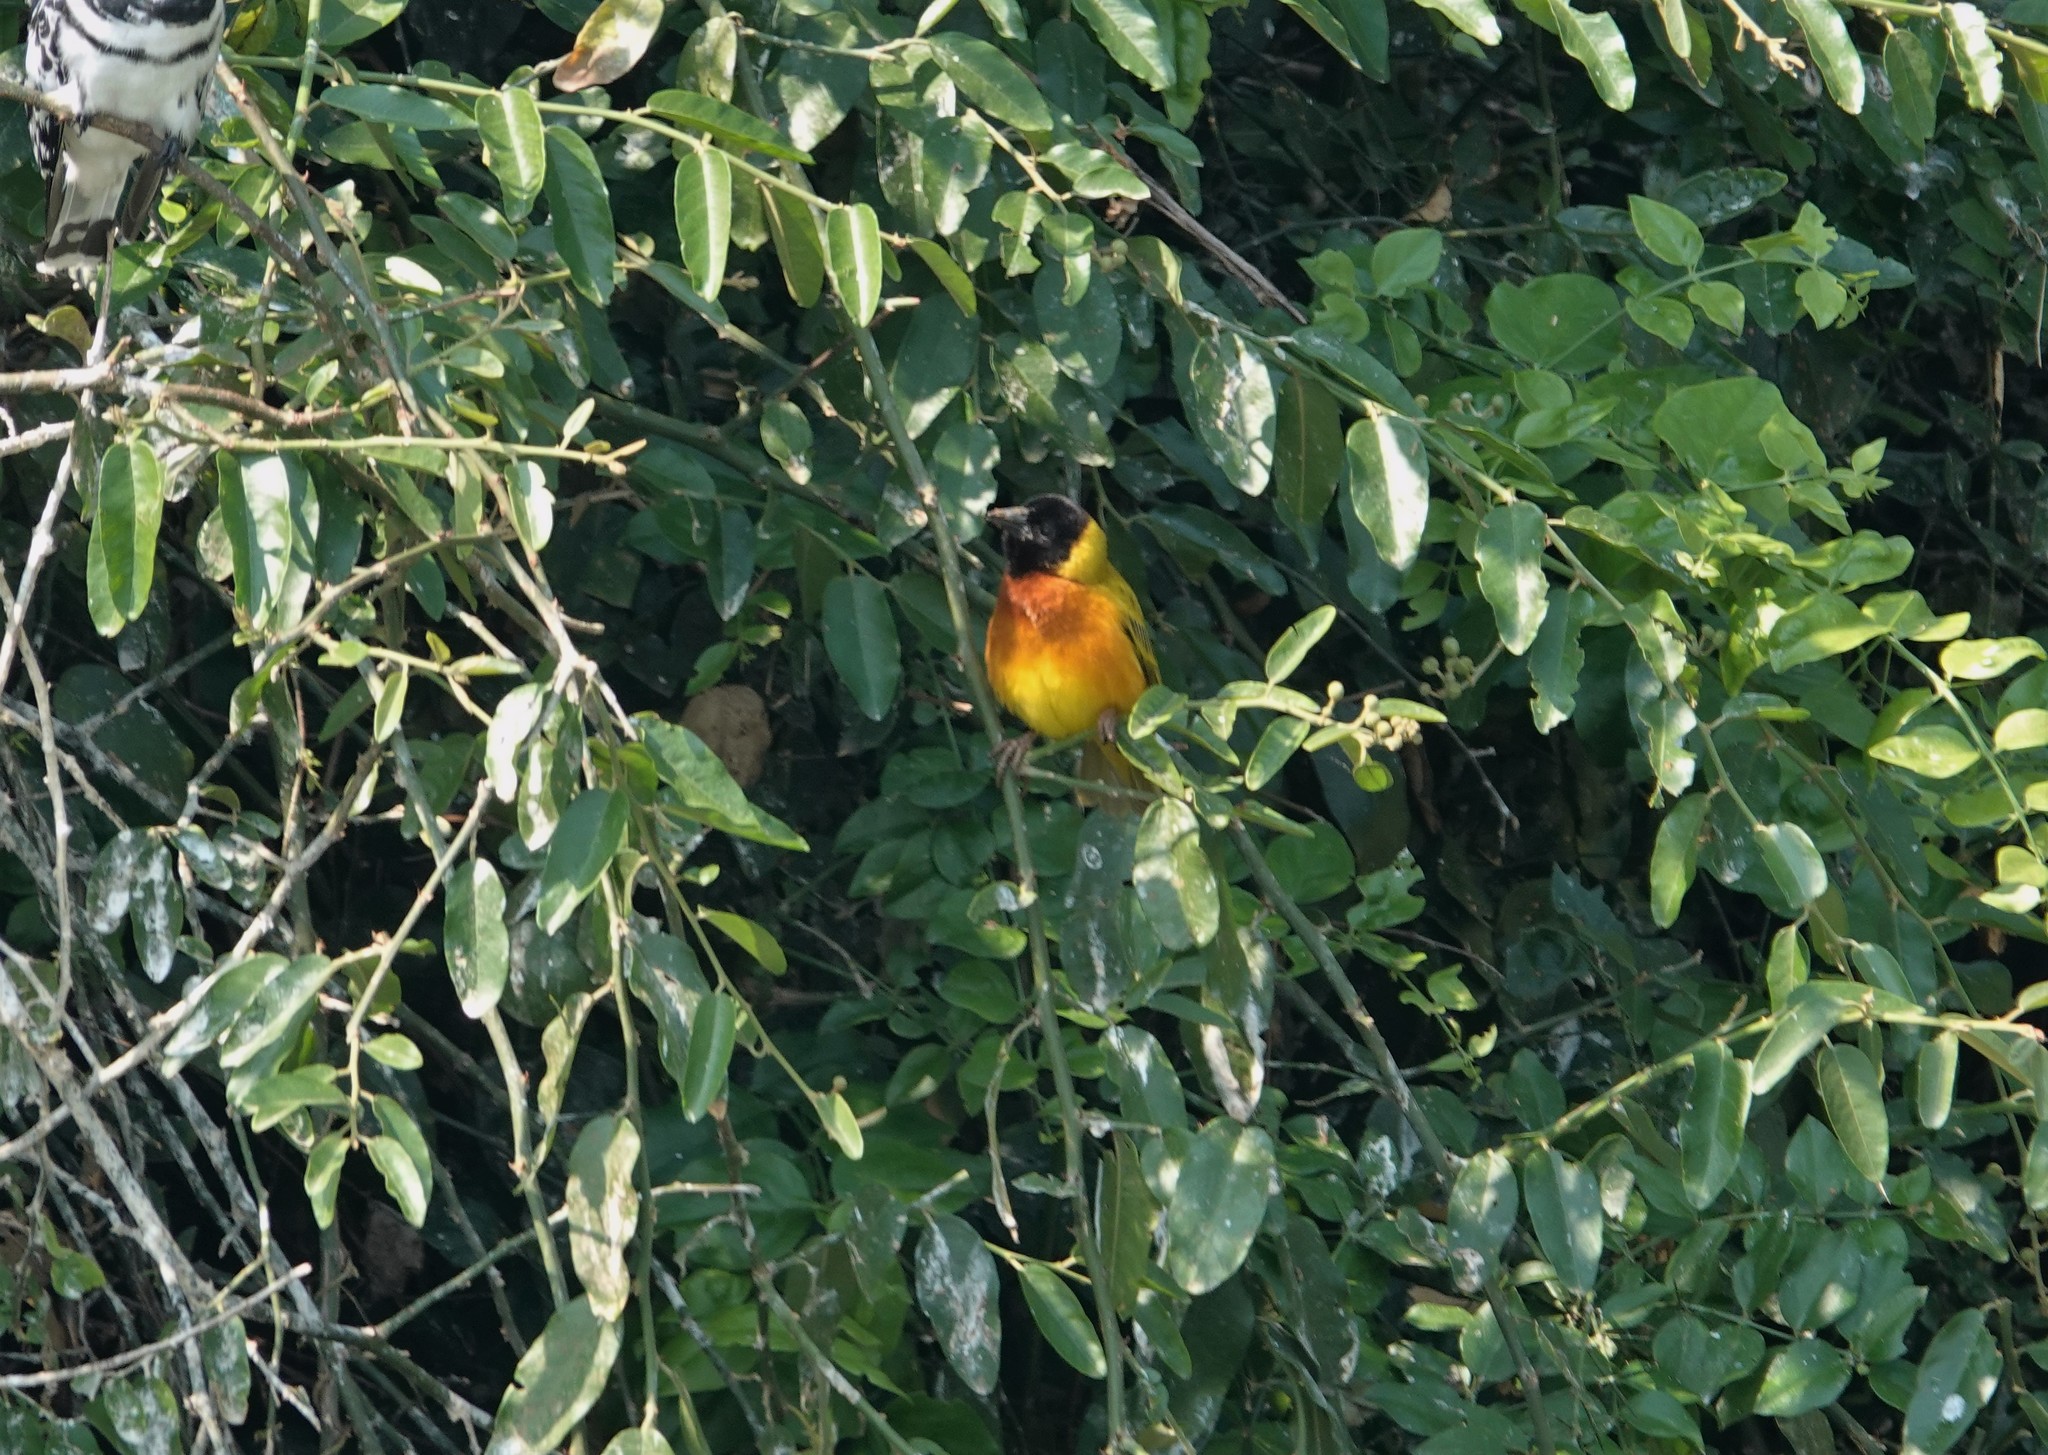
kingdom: Animalia
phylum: Chordata
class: Aves
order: Passeriformes
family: Ploceidae
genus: Ploceus
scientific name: Ploceus melanocephalus
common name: Black-headed weaver
